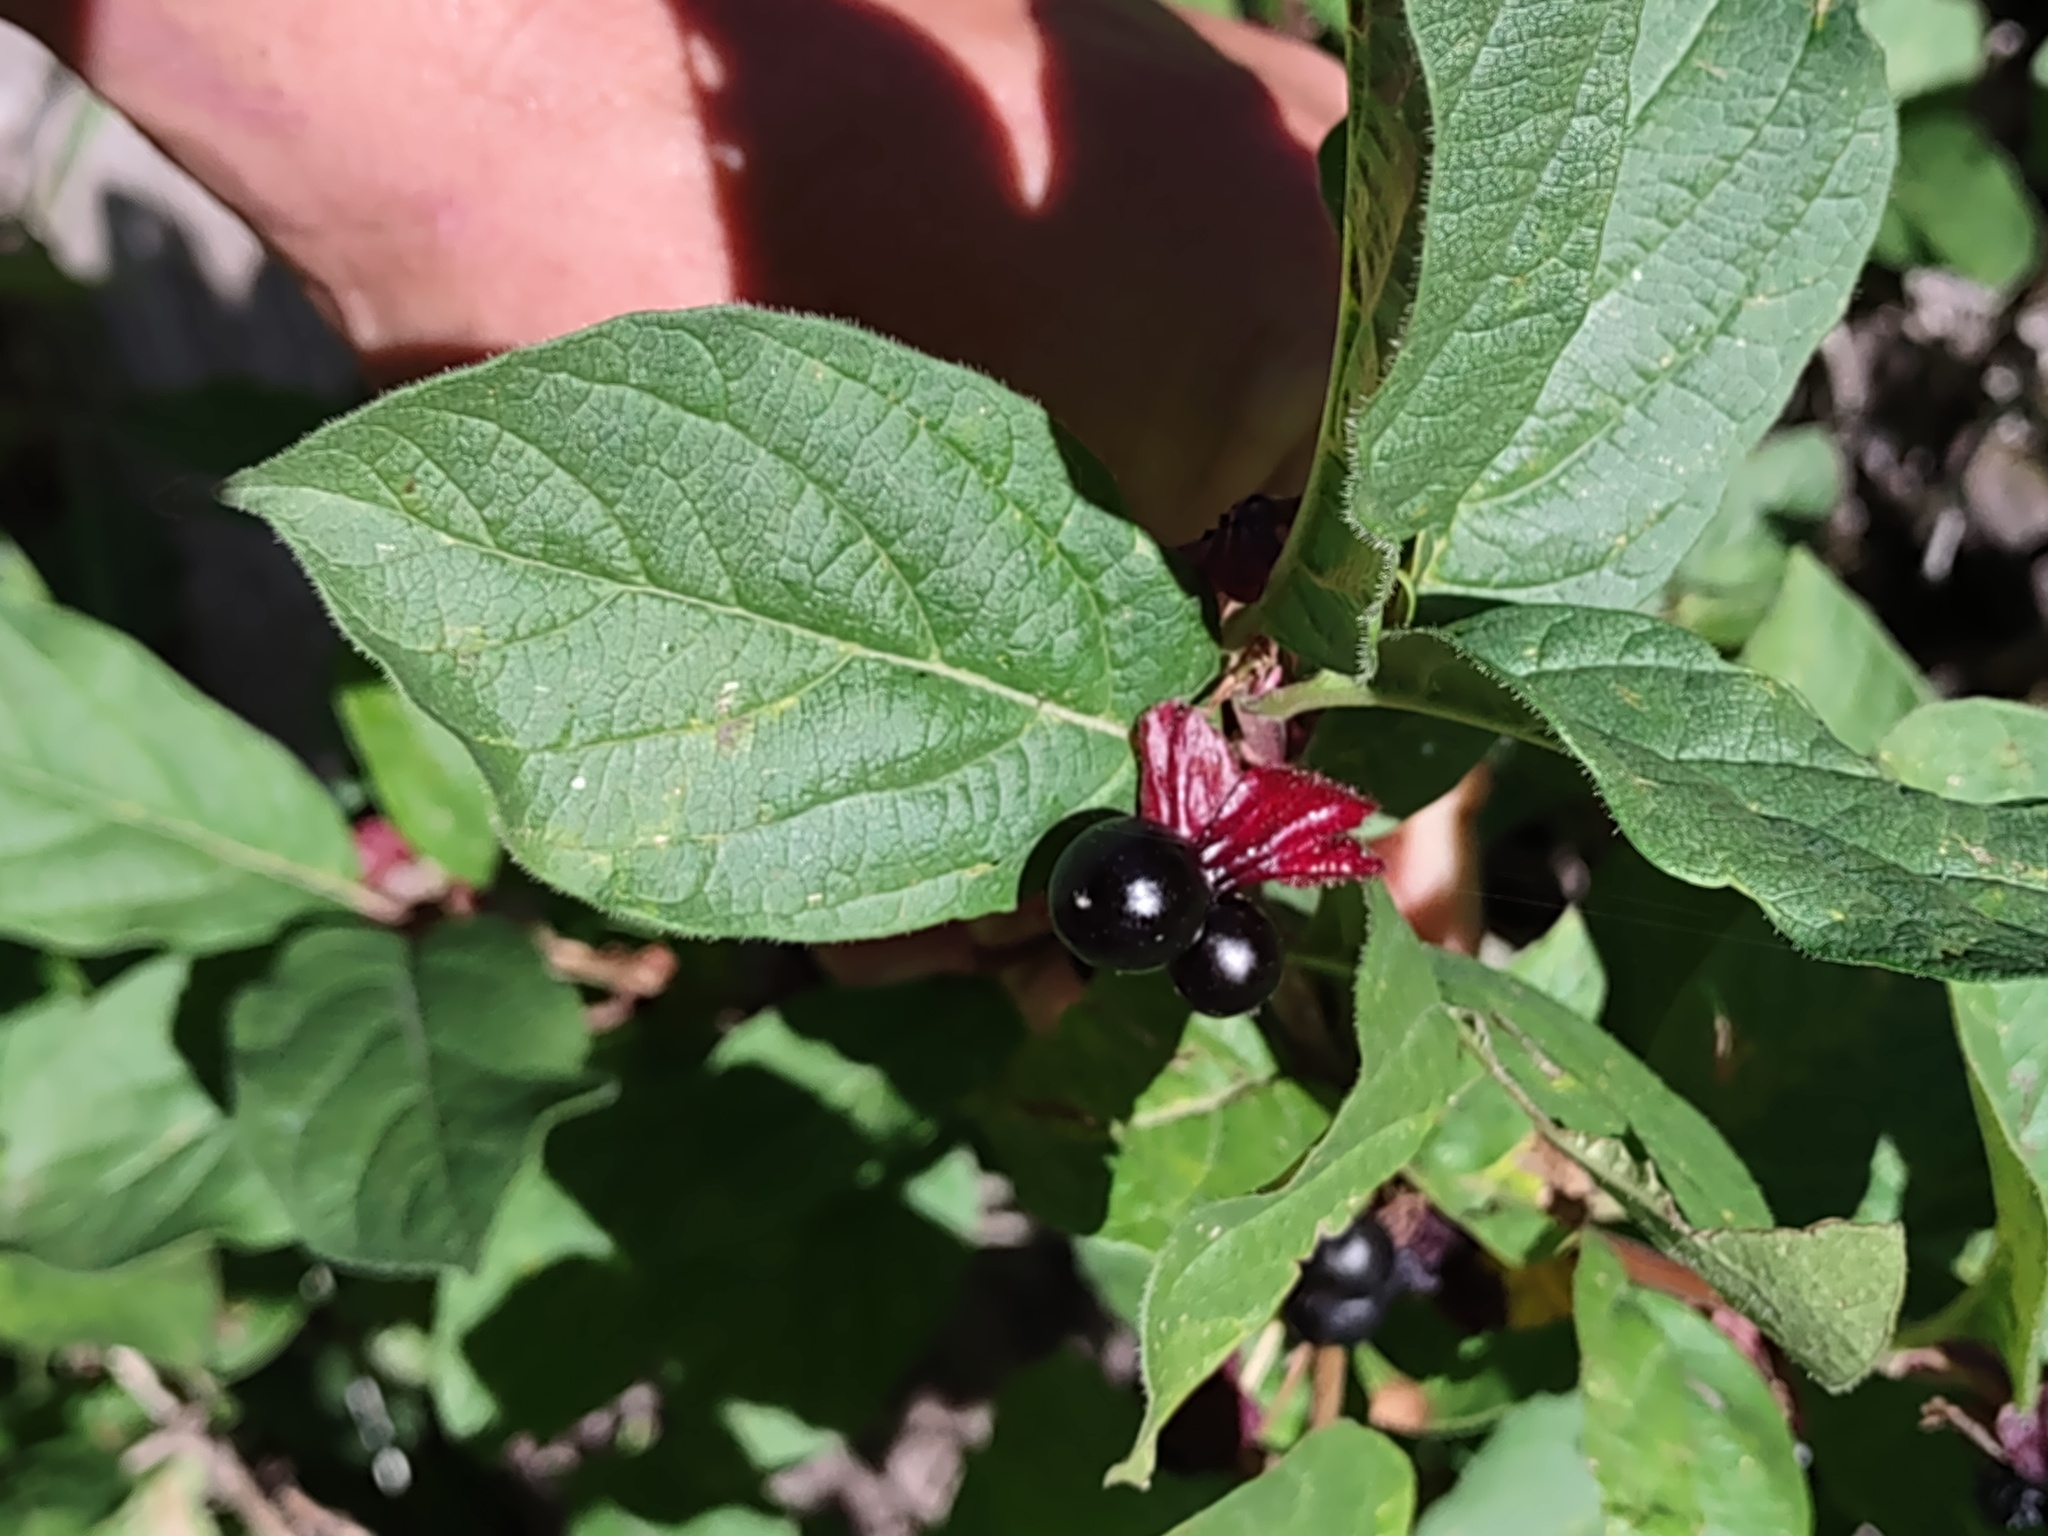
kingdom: Plantae
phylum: Tracheophyta
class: Magnoliopsida
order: Dipsacales
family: Caprifoliaceae
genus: Lonicera
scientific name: Lonicera involucrata
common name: Californian honeysuckle
